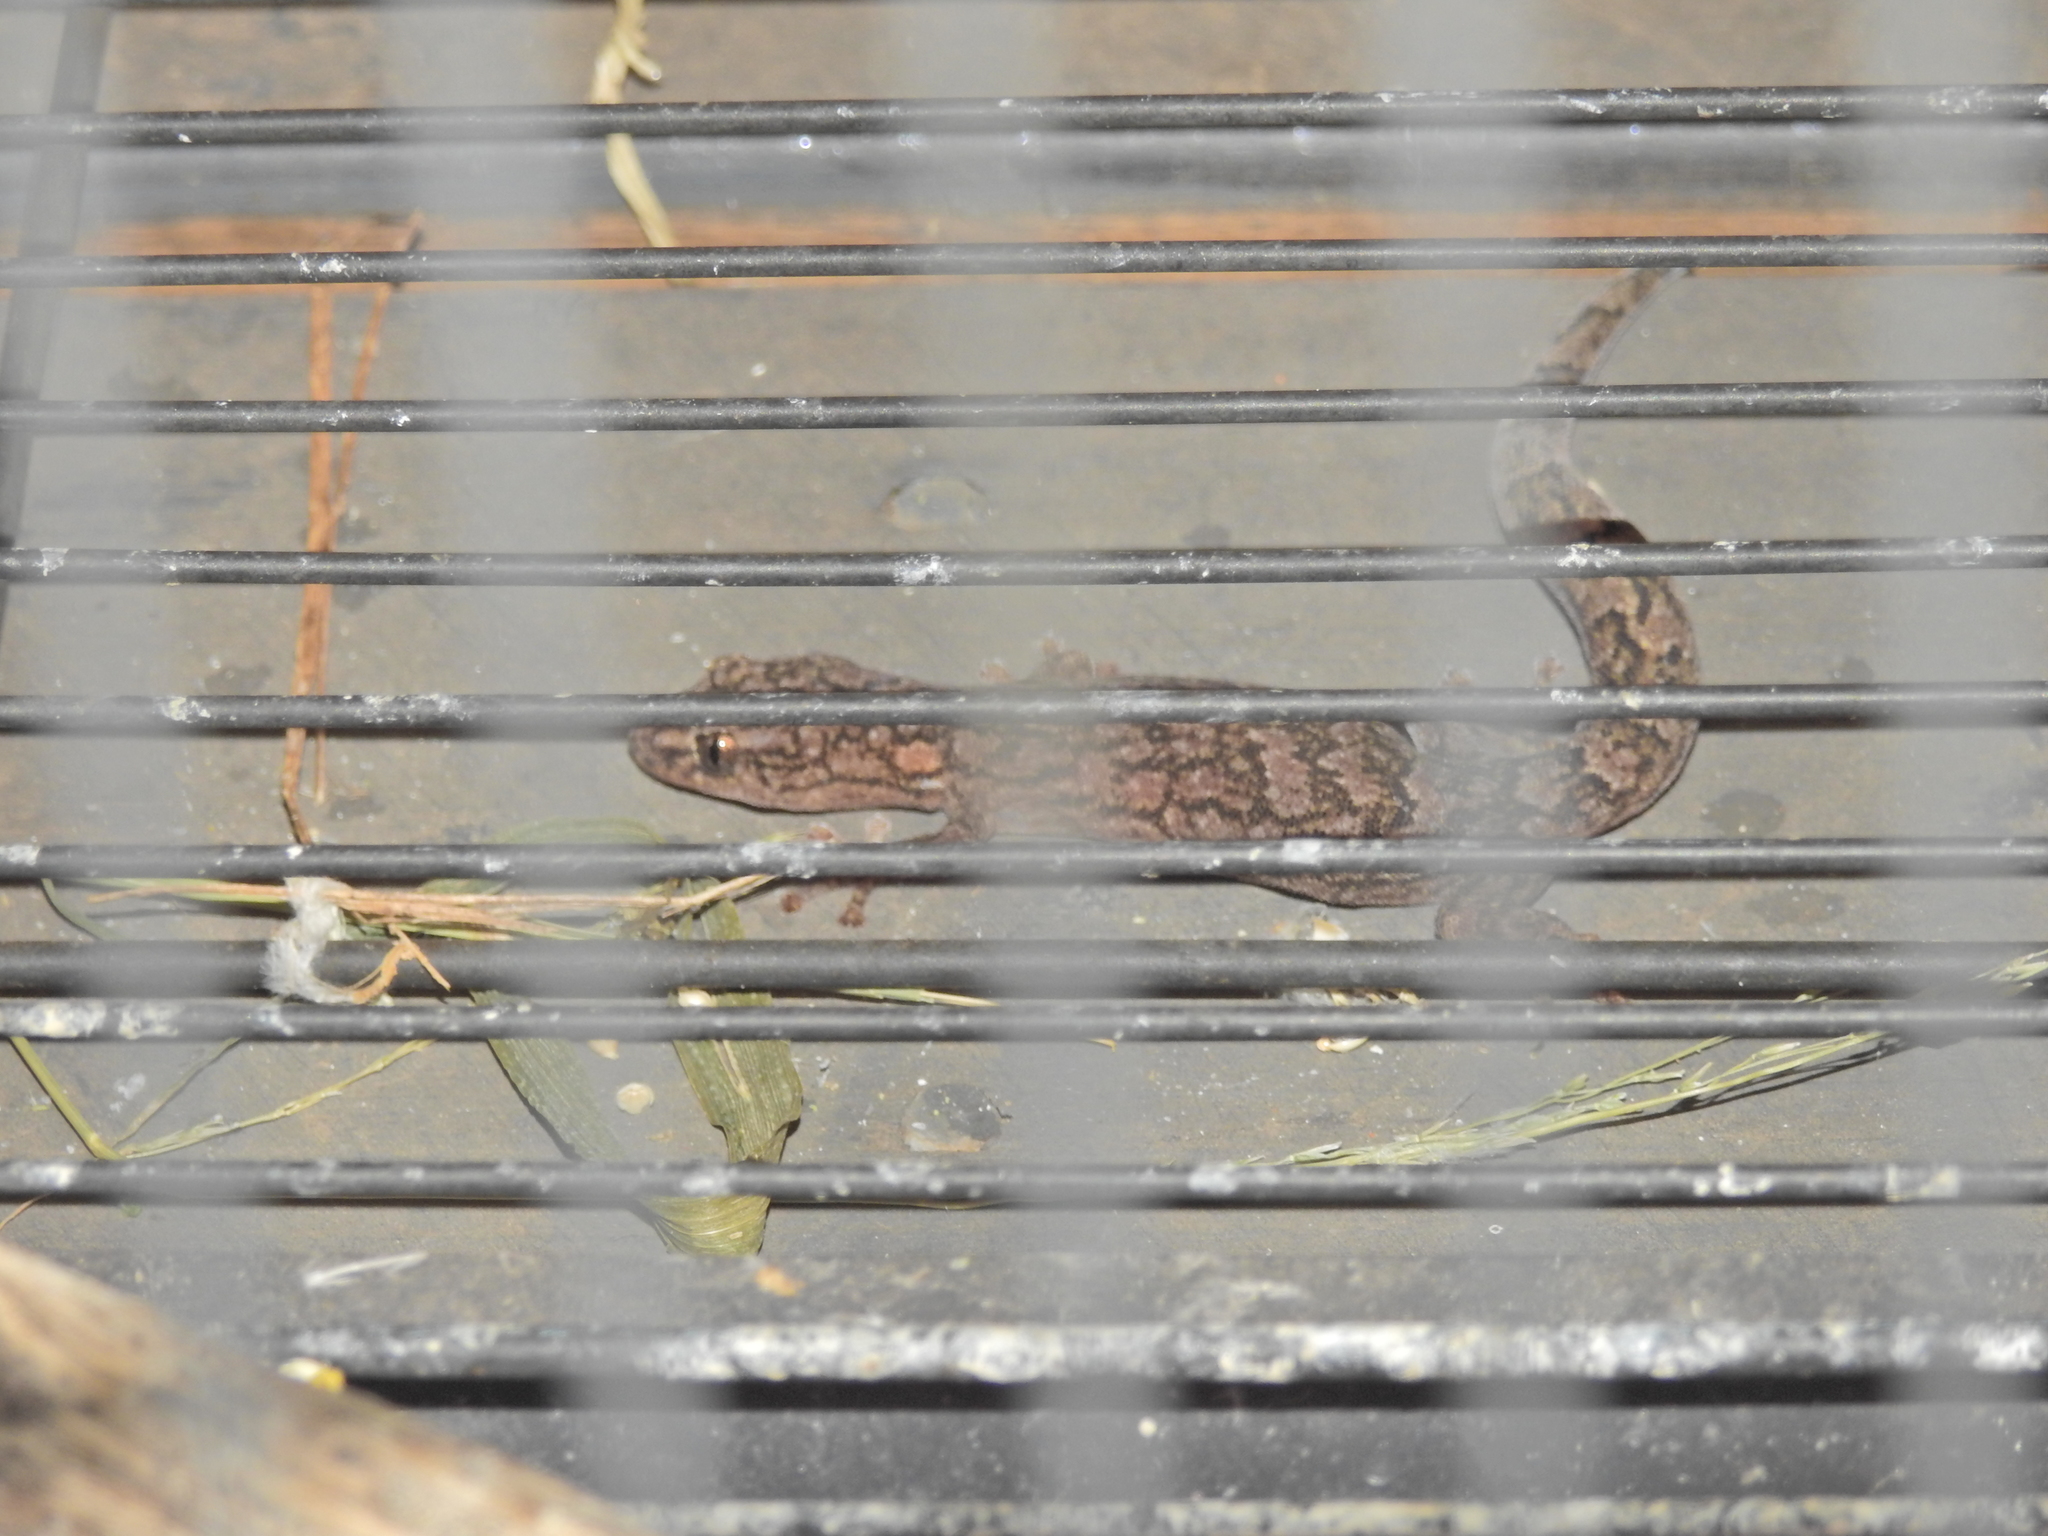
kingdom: Animalia
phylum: Chordata
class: Squamata
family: Gekkonidae
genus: Christinus
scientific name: Christinus marmoratus
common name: Marbled gecko
